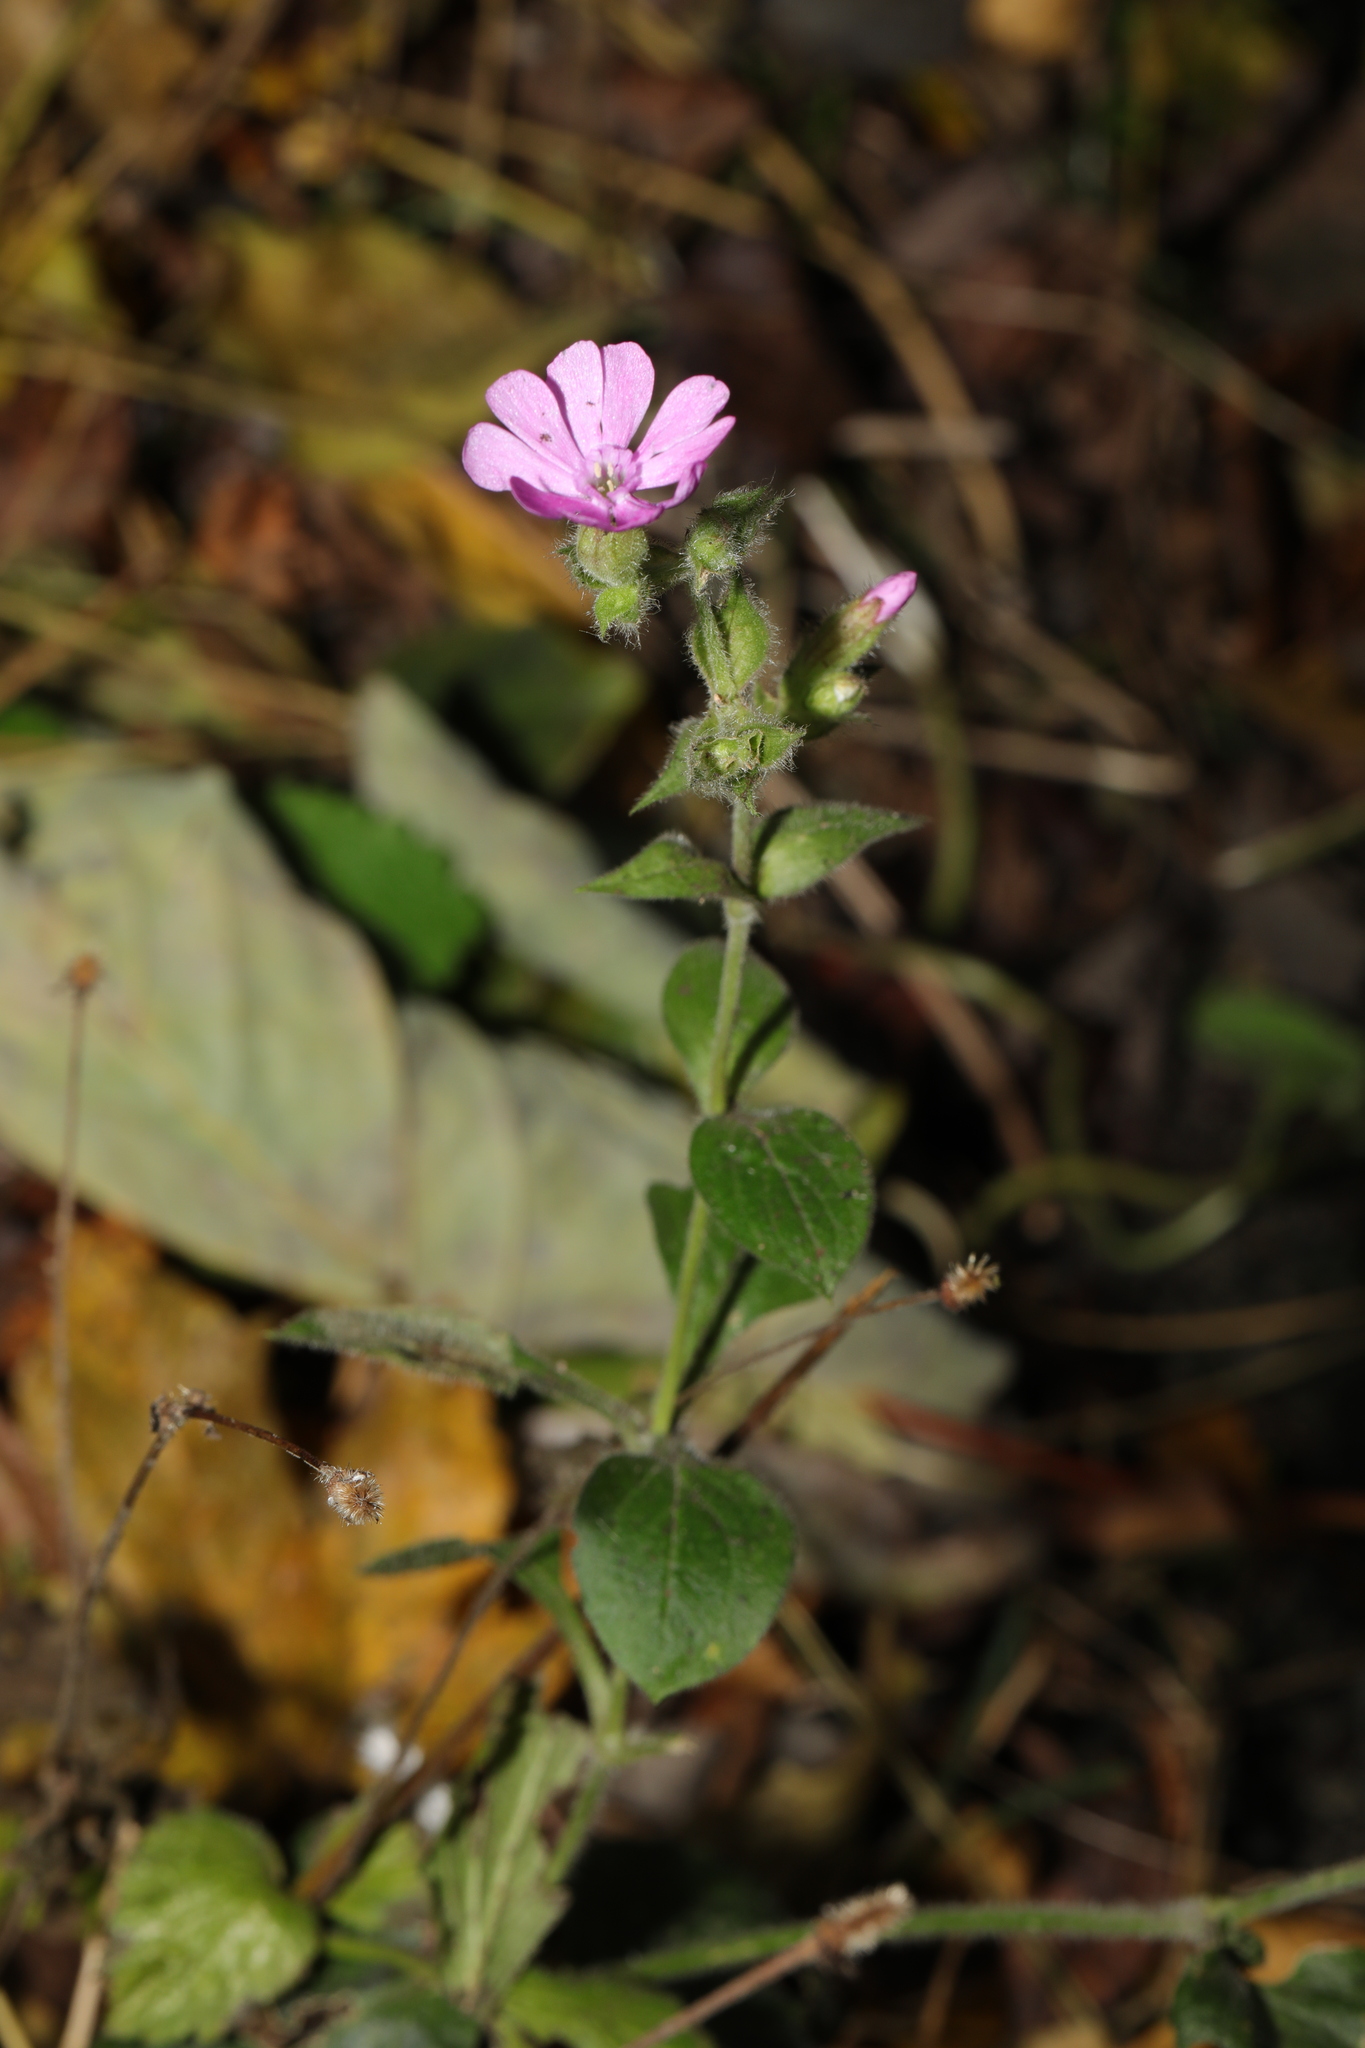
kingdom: Plantae
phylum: Tracheophyta
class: Magnoliopsida
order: Caryophyllales
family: Caryophyllaceae
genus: Silene
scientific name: Silene dioica
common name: Red campion
